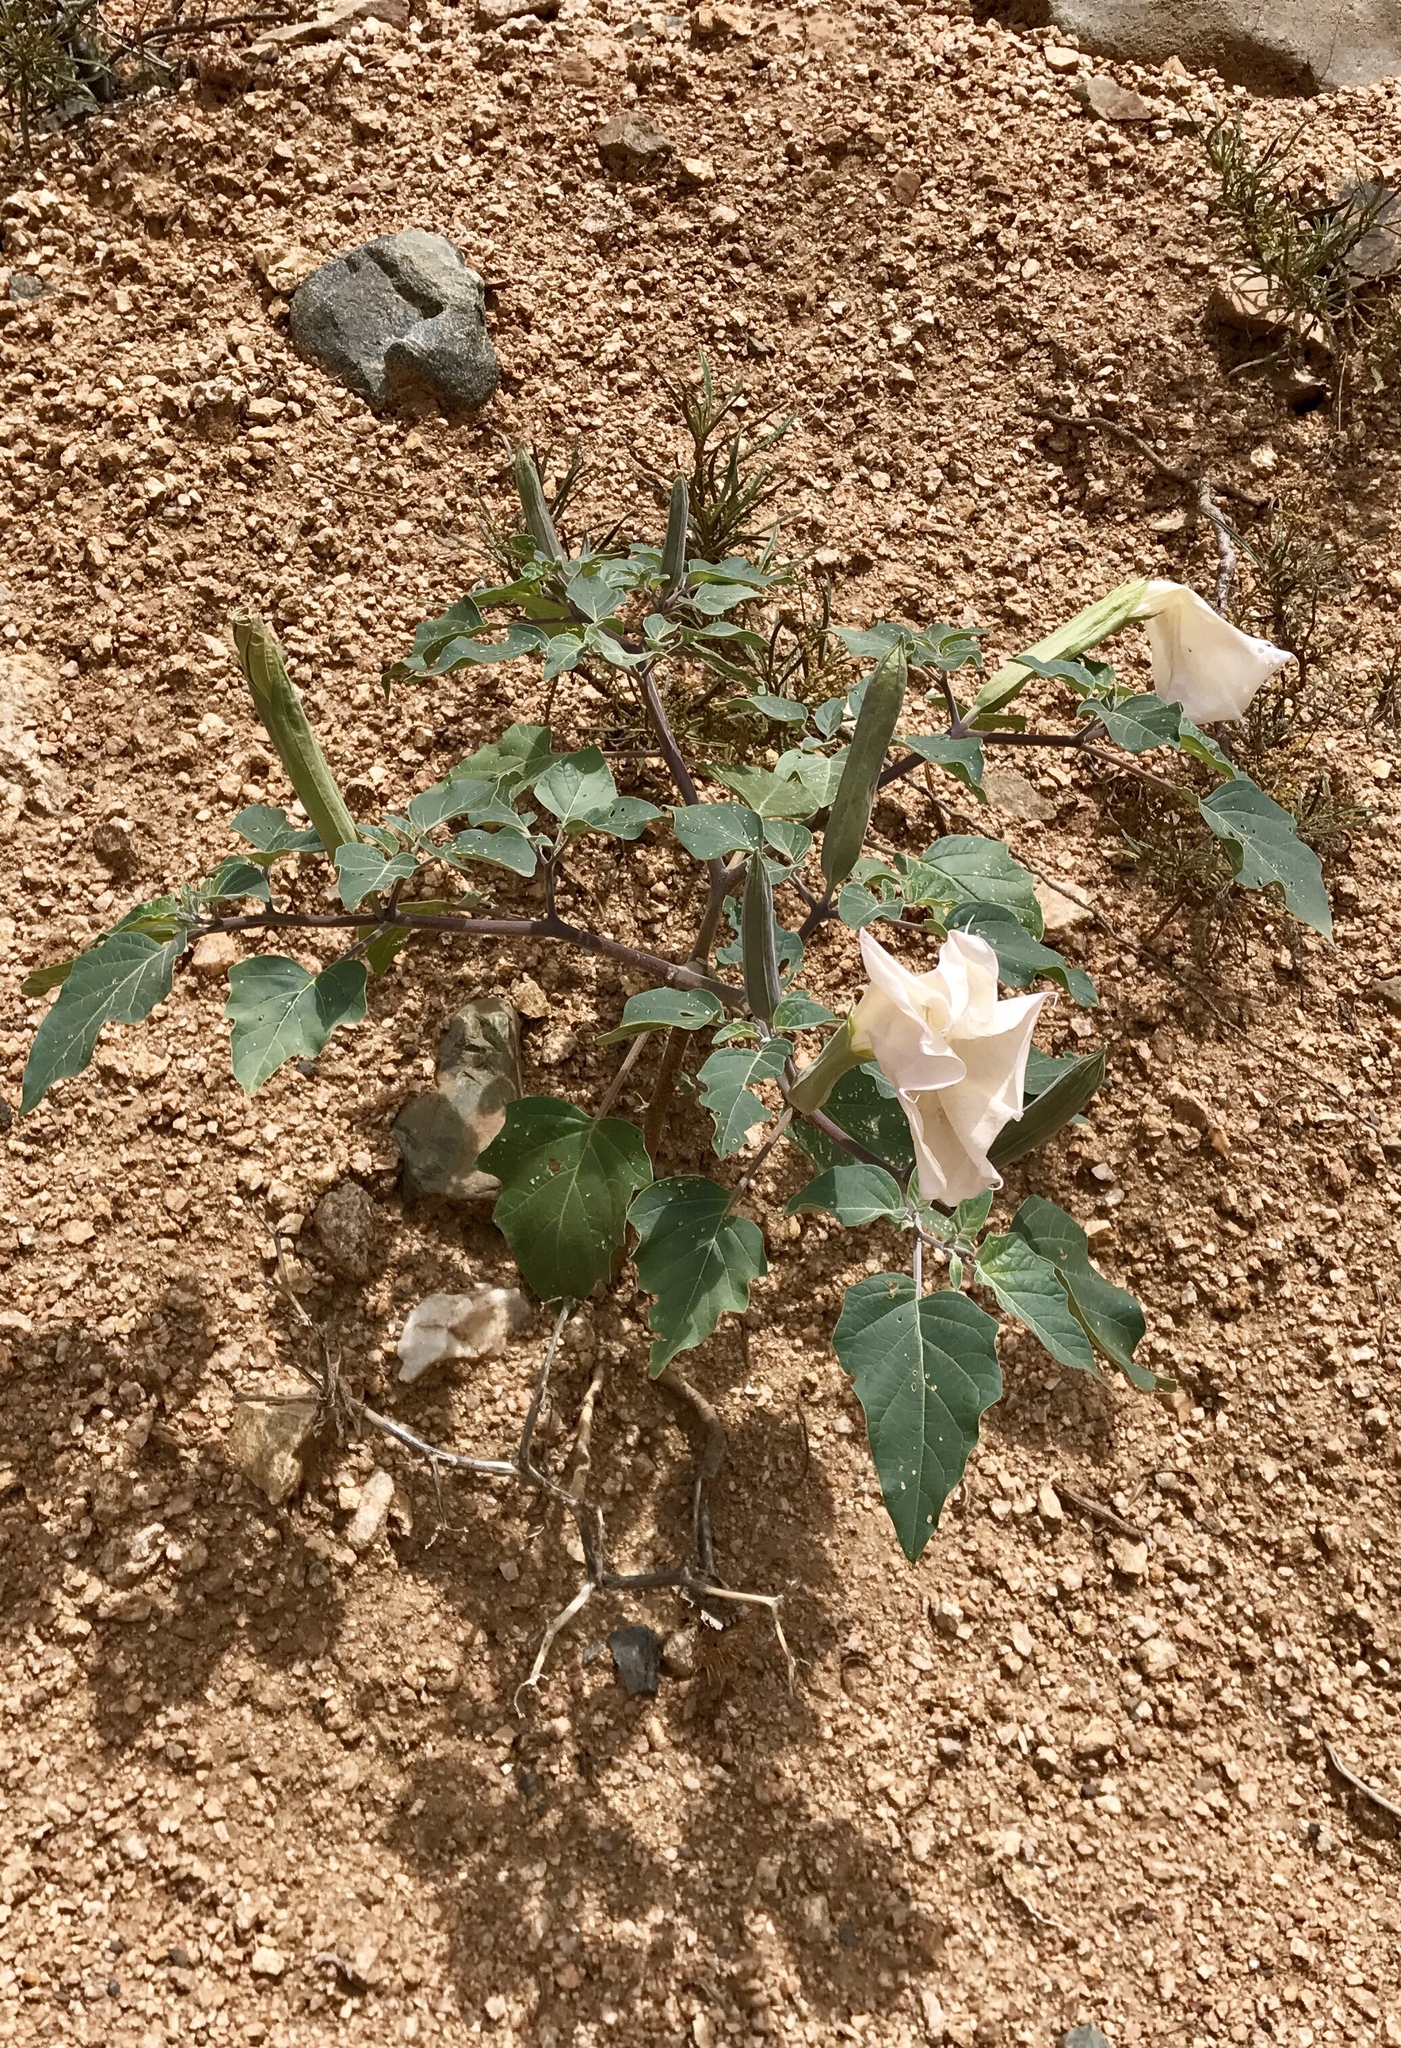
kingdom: Plantae
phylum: Tracheophyta
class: Magnoliopsida
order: Solanales
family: Solanaceae
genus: Datura
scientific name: Datura wrightii
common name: Sacred thorn-apple
